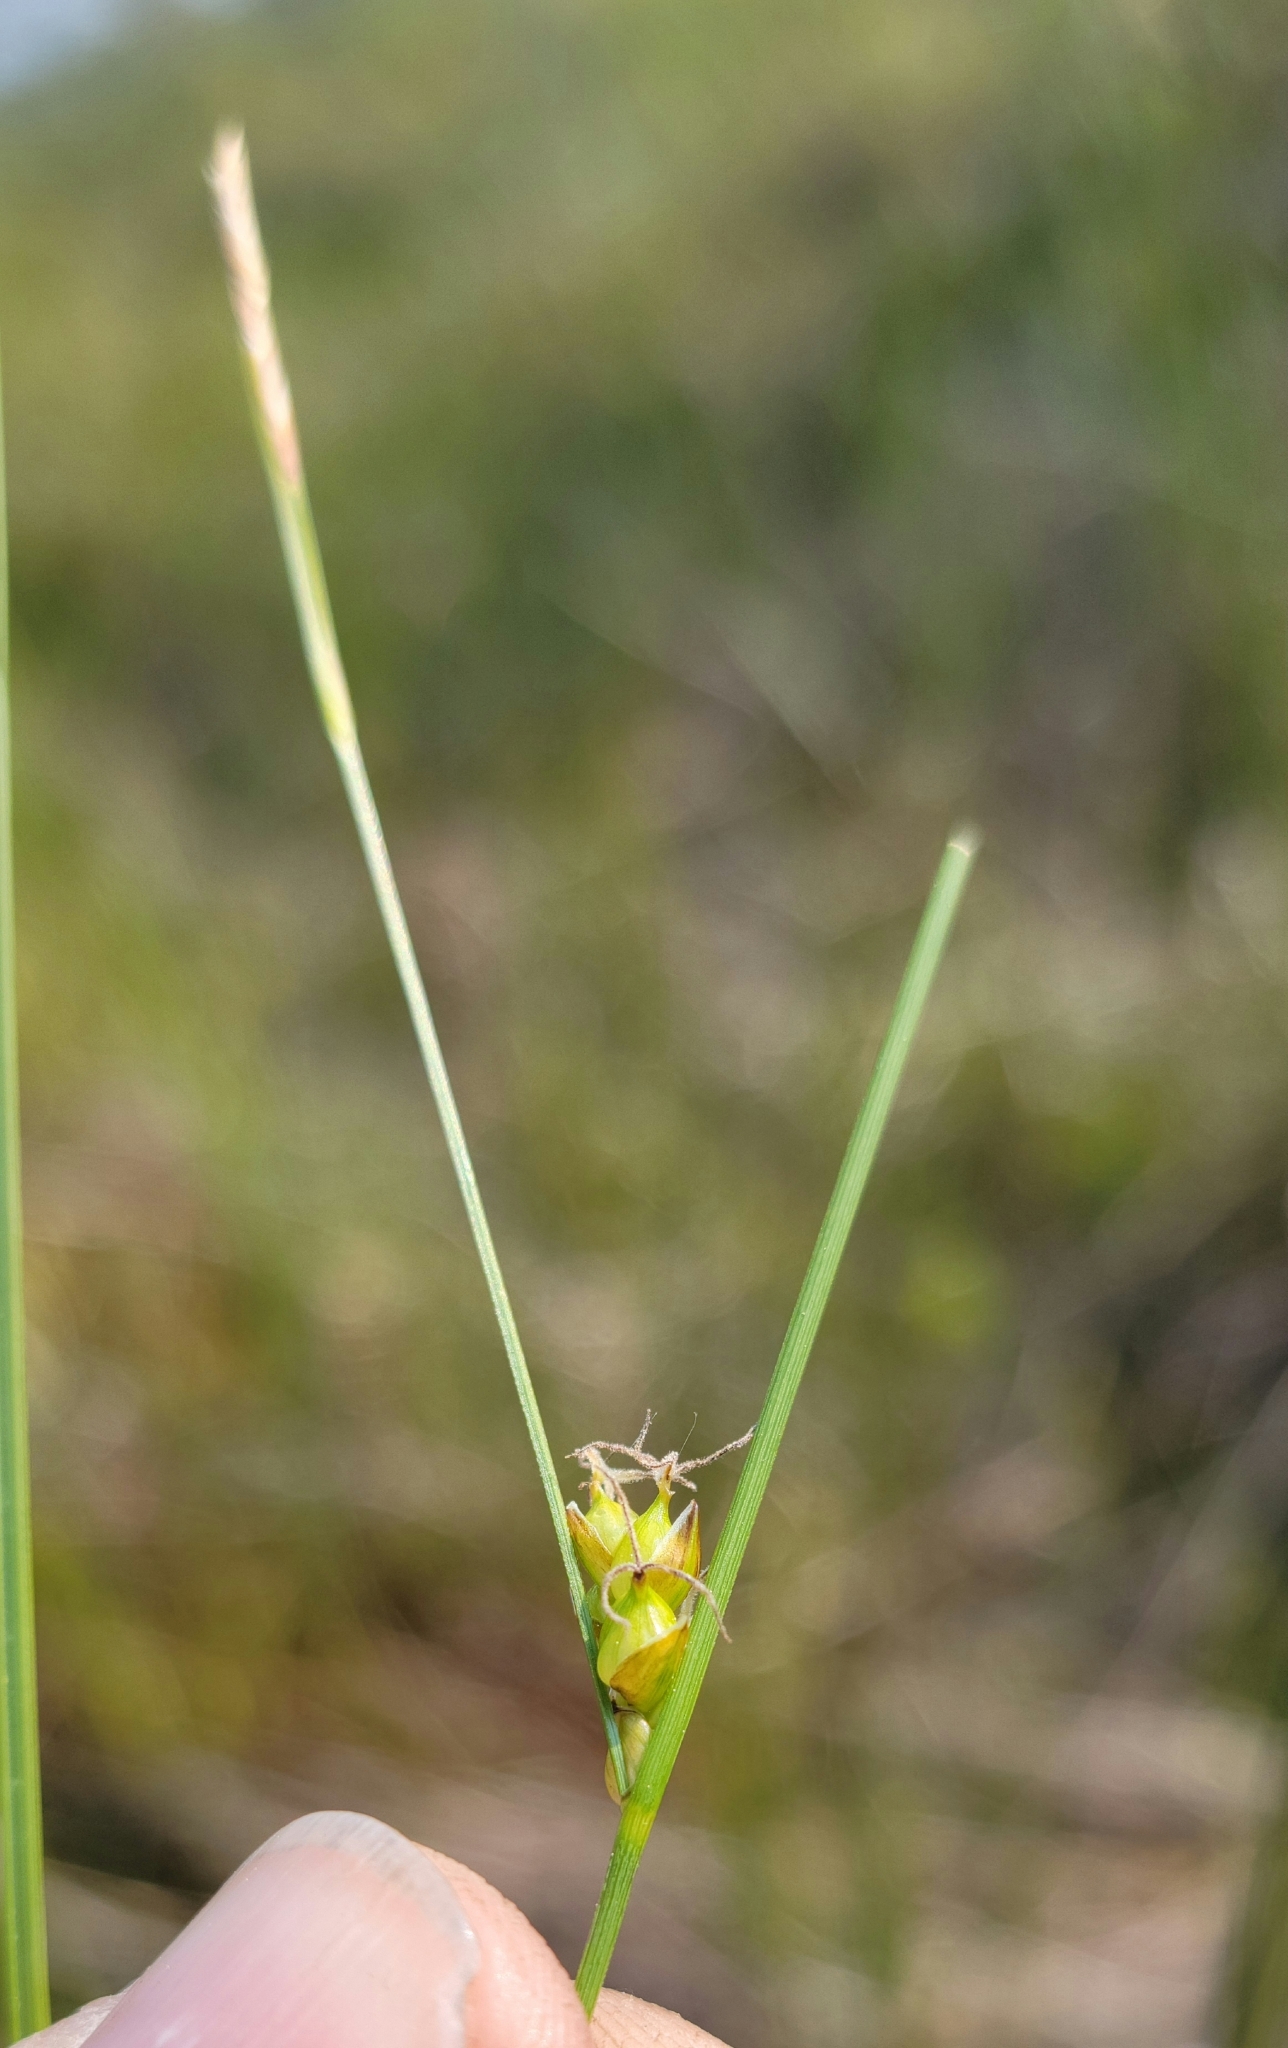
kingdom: Plantae
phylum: Tracheophyta
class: Liliopsida
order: Poales
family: Cyperaceae
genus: Carex
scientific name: Carex oligosperma
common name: Few-seed sedge
